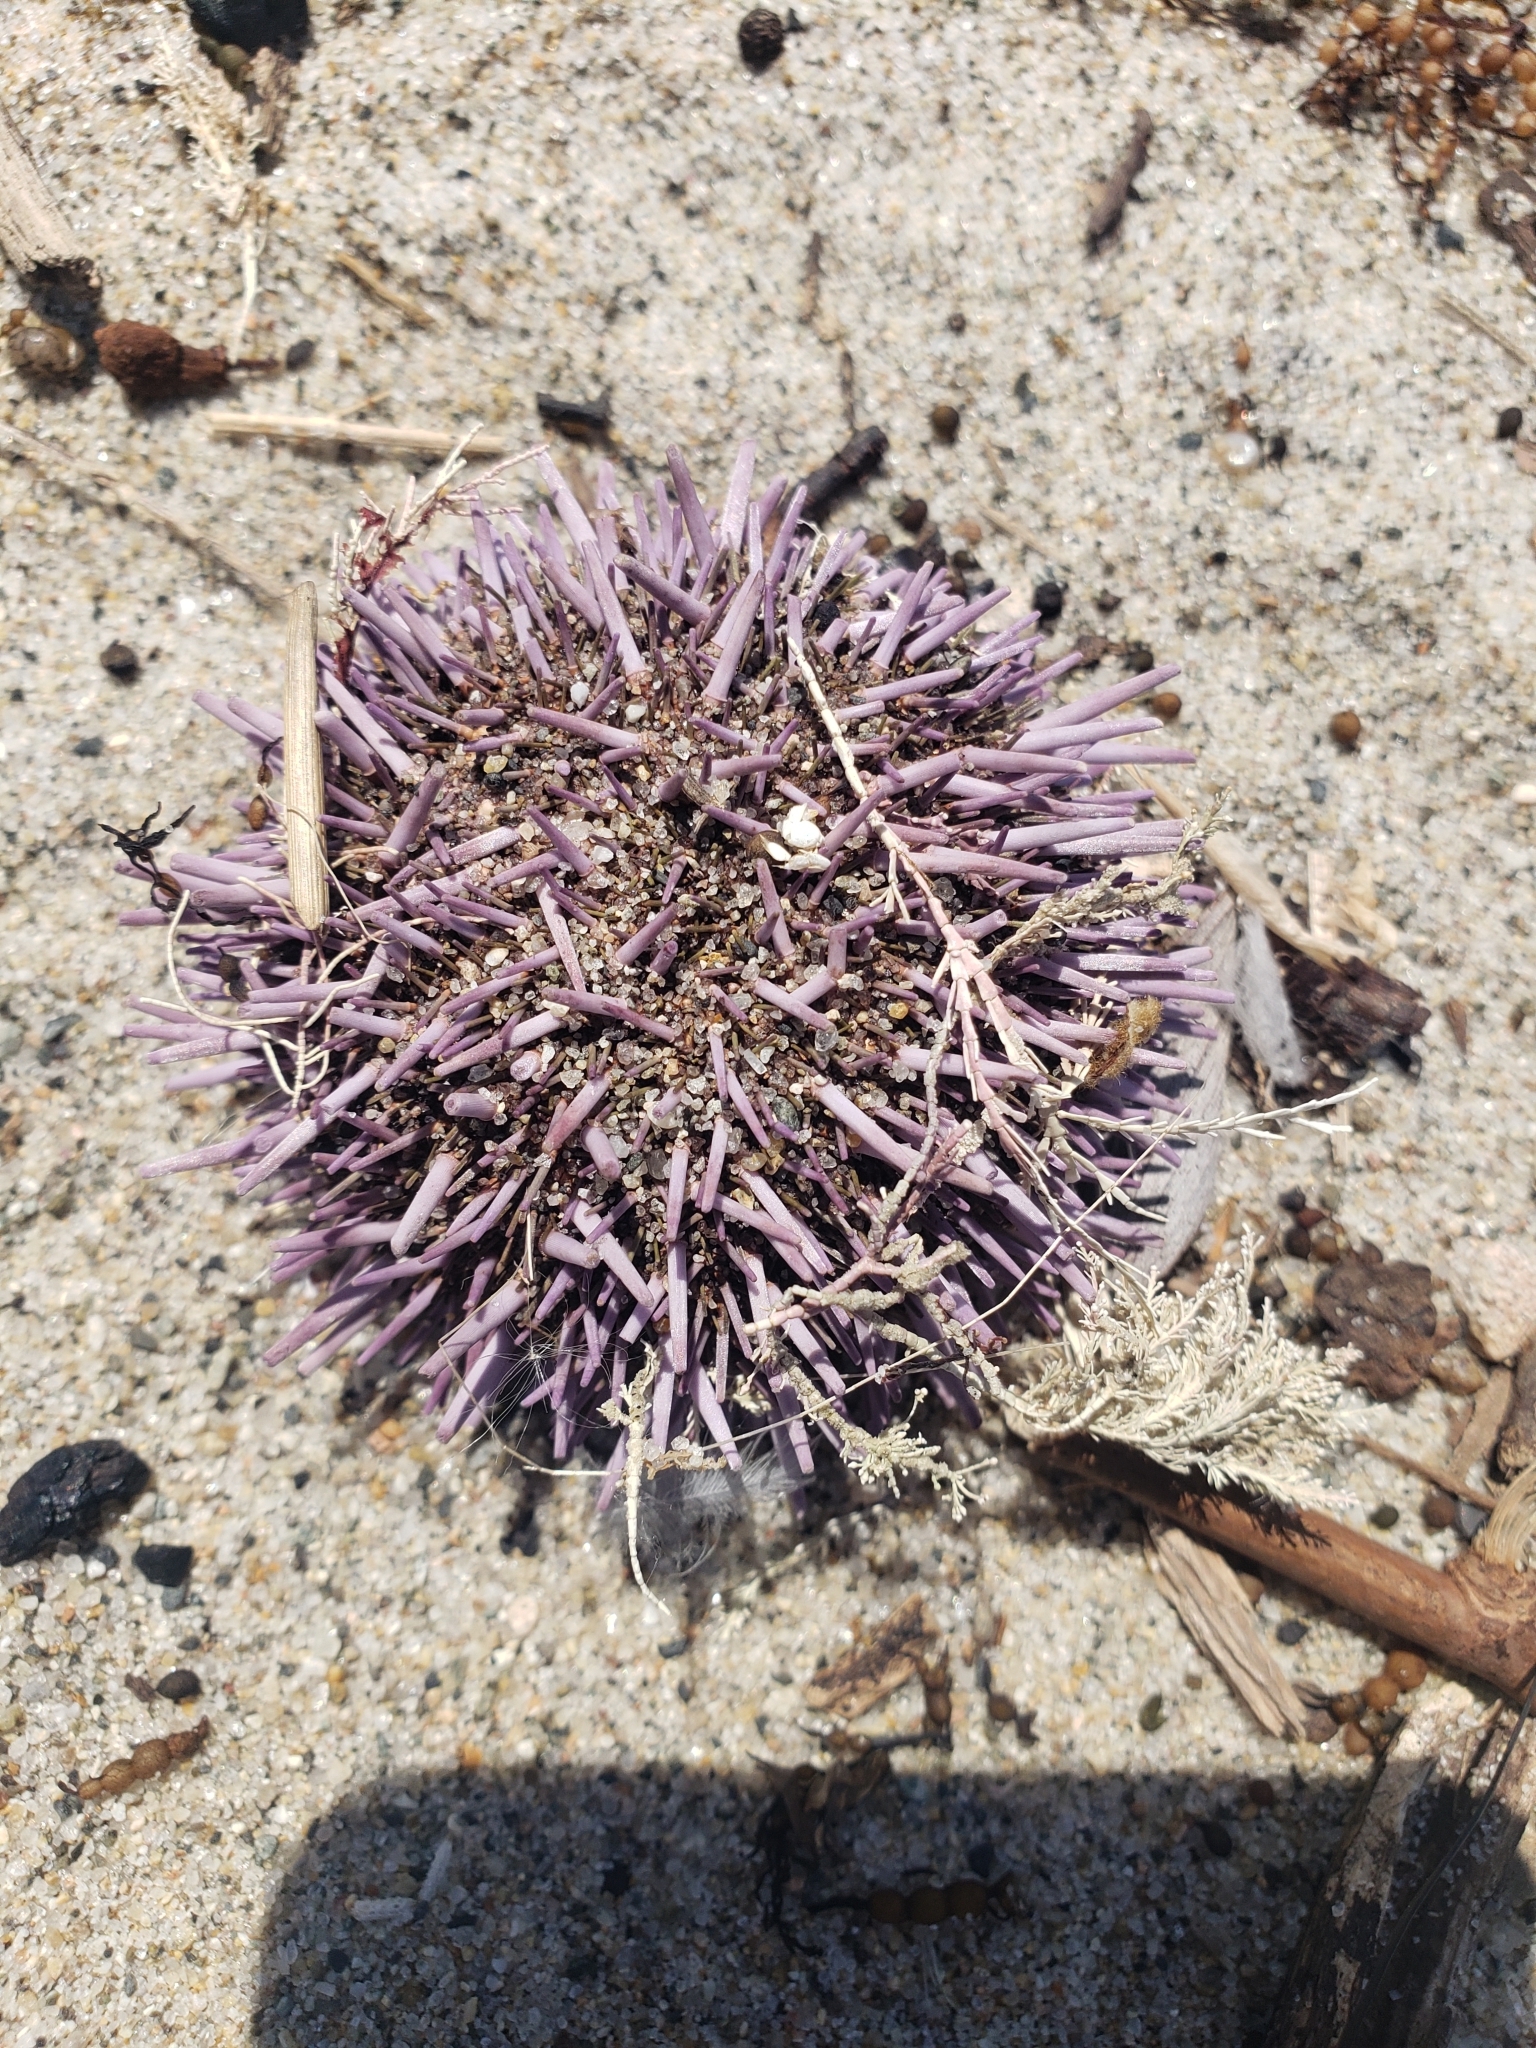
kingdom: Animalia
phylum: Echinodermata
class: Echinoidea
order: Camarodonta
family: Strongylocentrotidae
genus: Strongylocentrotus
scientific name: Strongylocentrotus purpuratus
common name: Purple sea urchin
